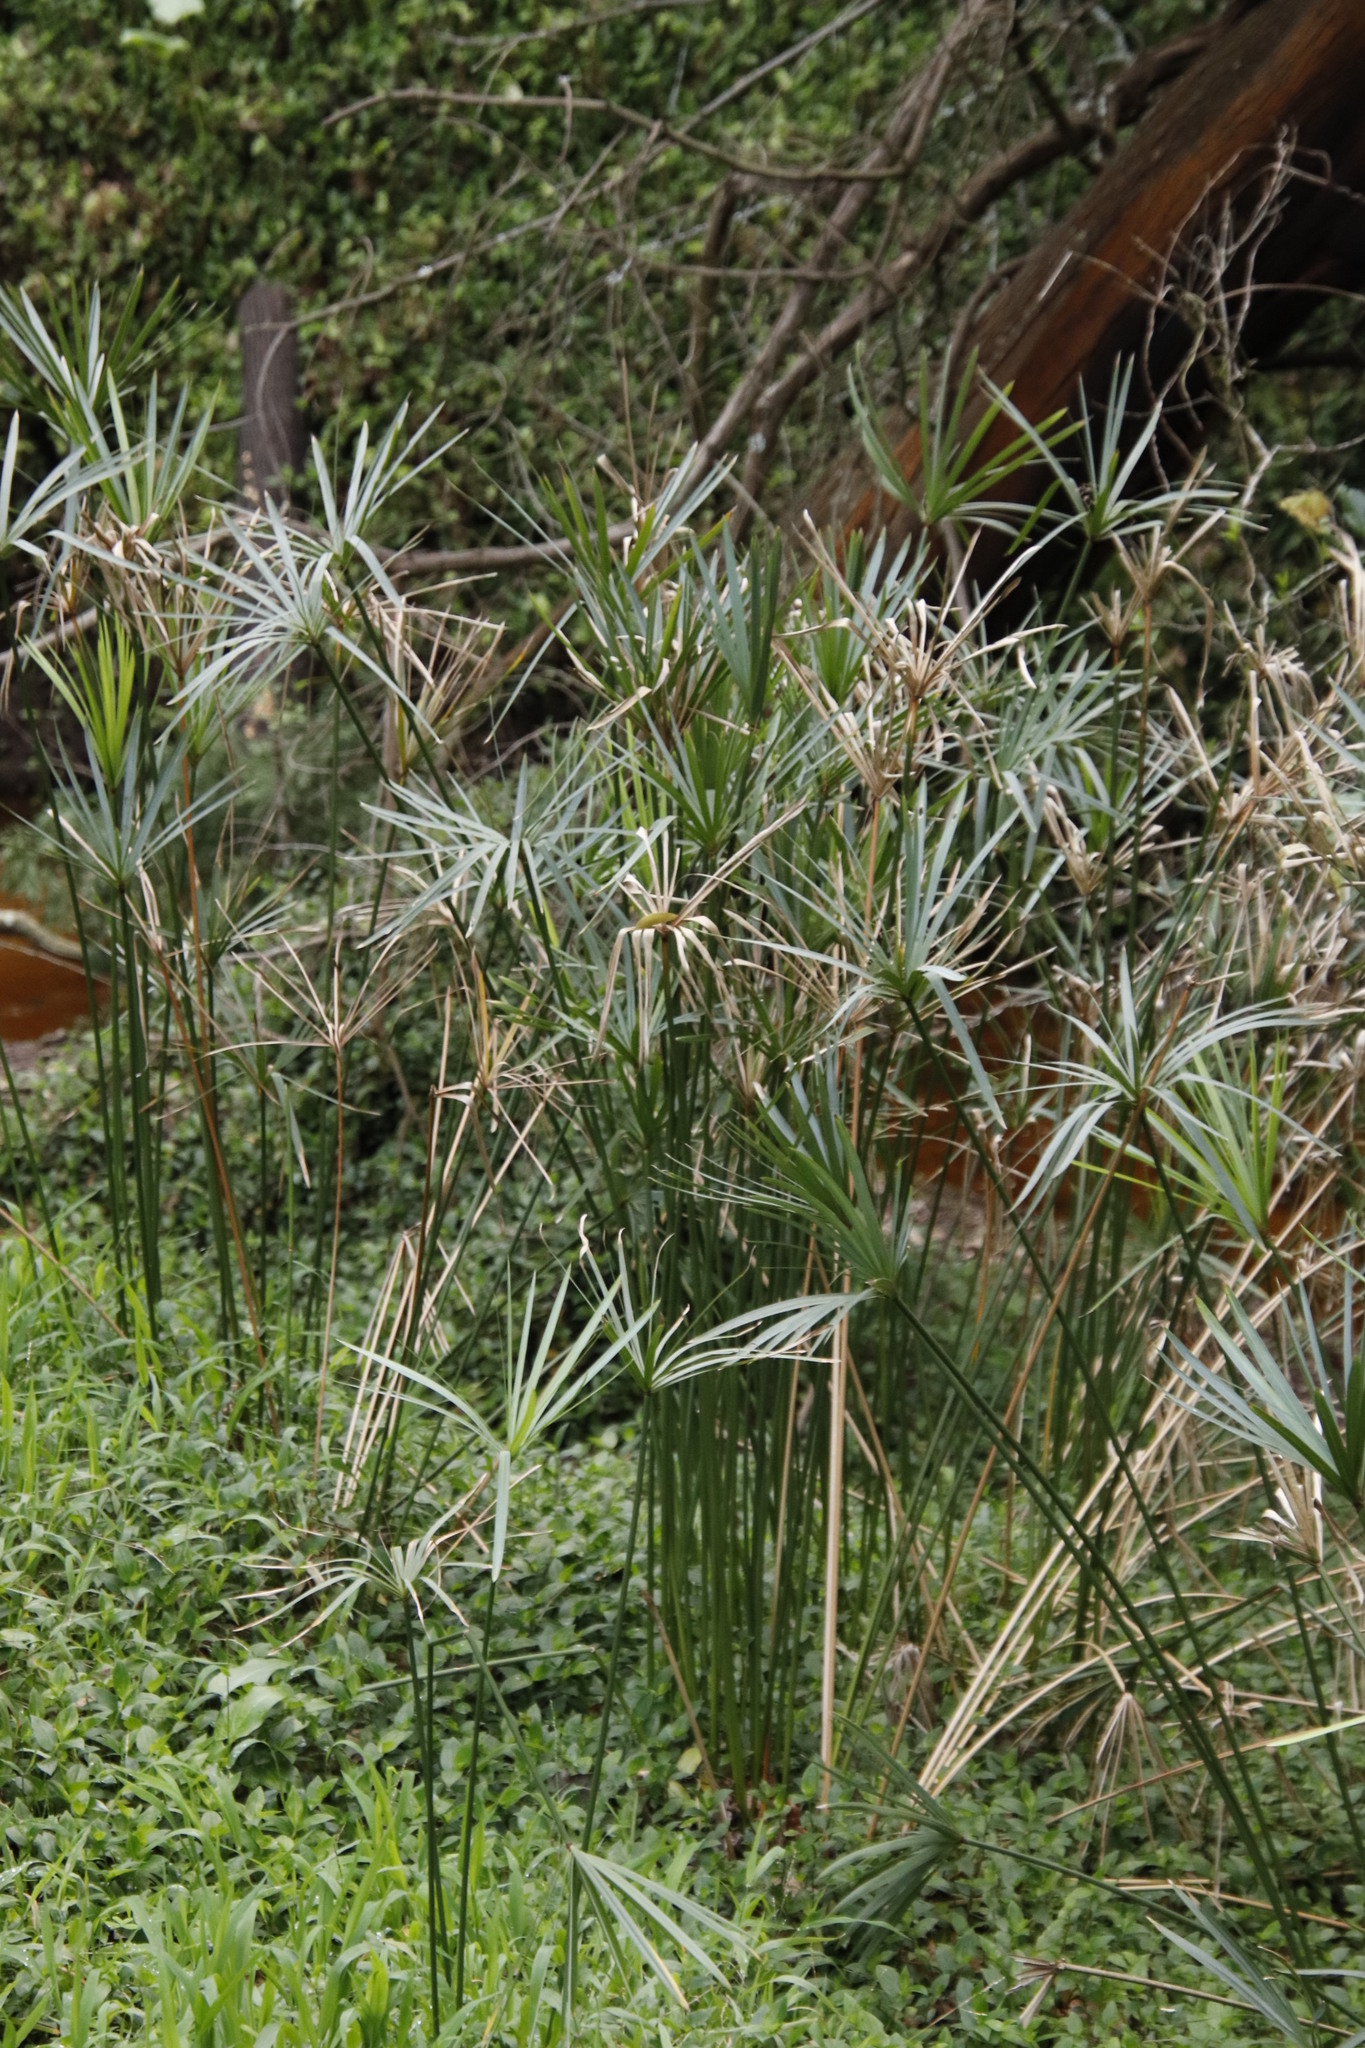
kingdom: Plantae
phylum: Tracheophyta
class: Liliopsida
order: Poales
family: Cyperaceae
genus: Cyperus
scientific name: Cyperus textilis
